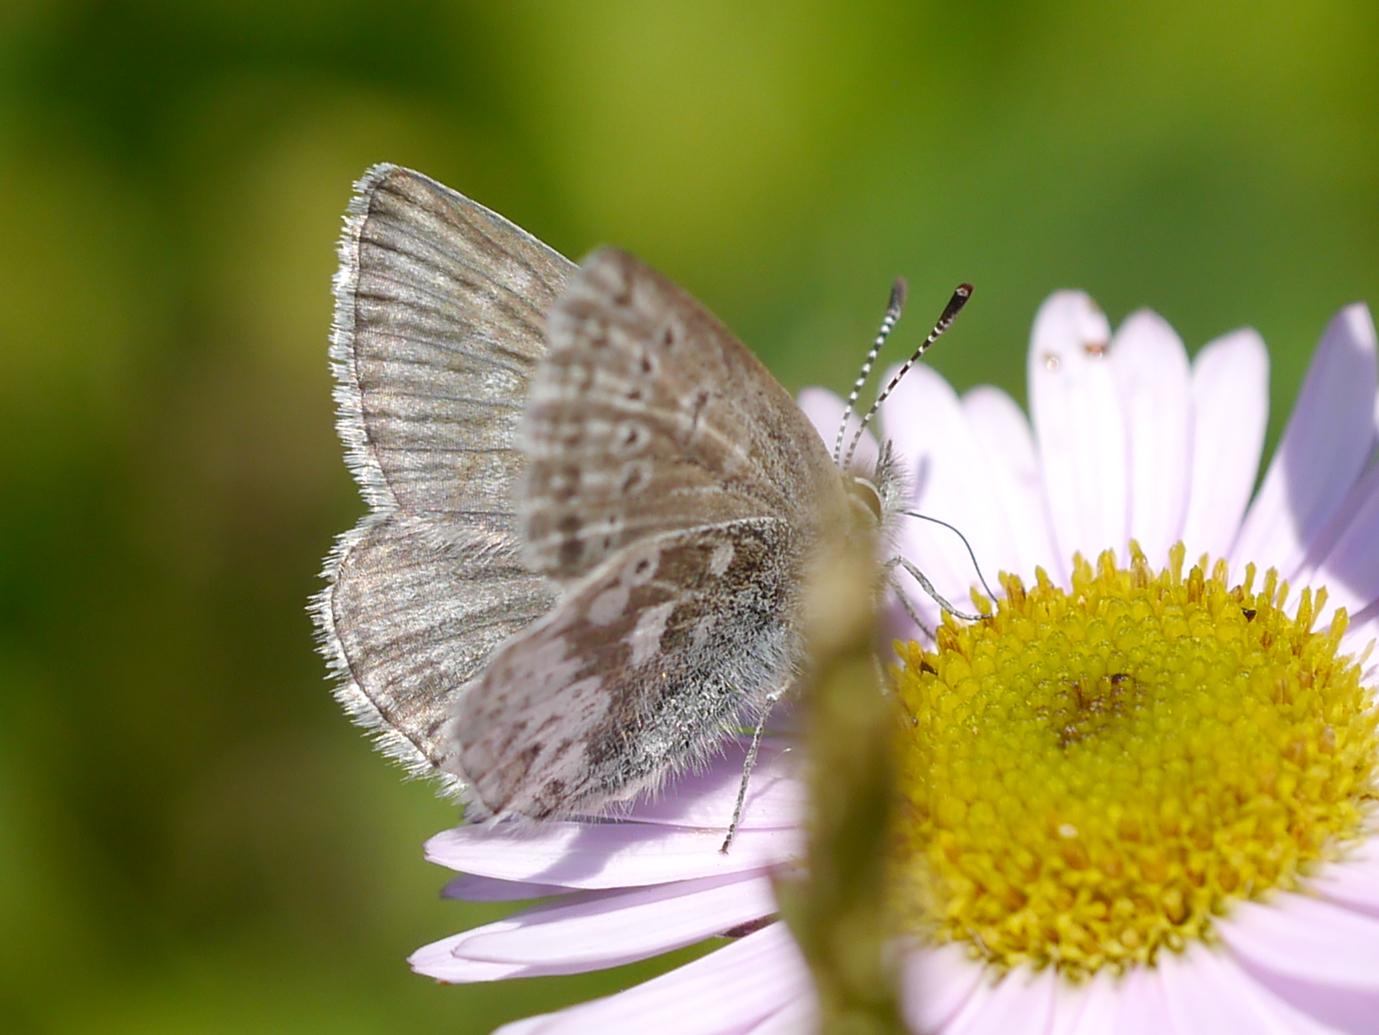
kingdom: Animalia
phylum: Arthropoda
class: Insecta
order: Lepidoptera
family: Lycaenidae
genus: Agriades
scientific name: Agriades glandon
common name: Glandon blue
